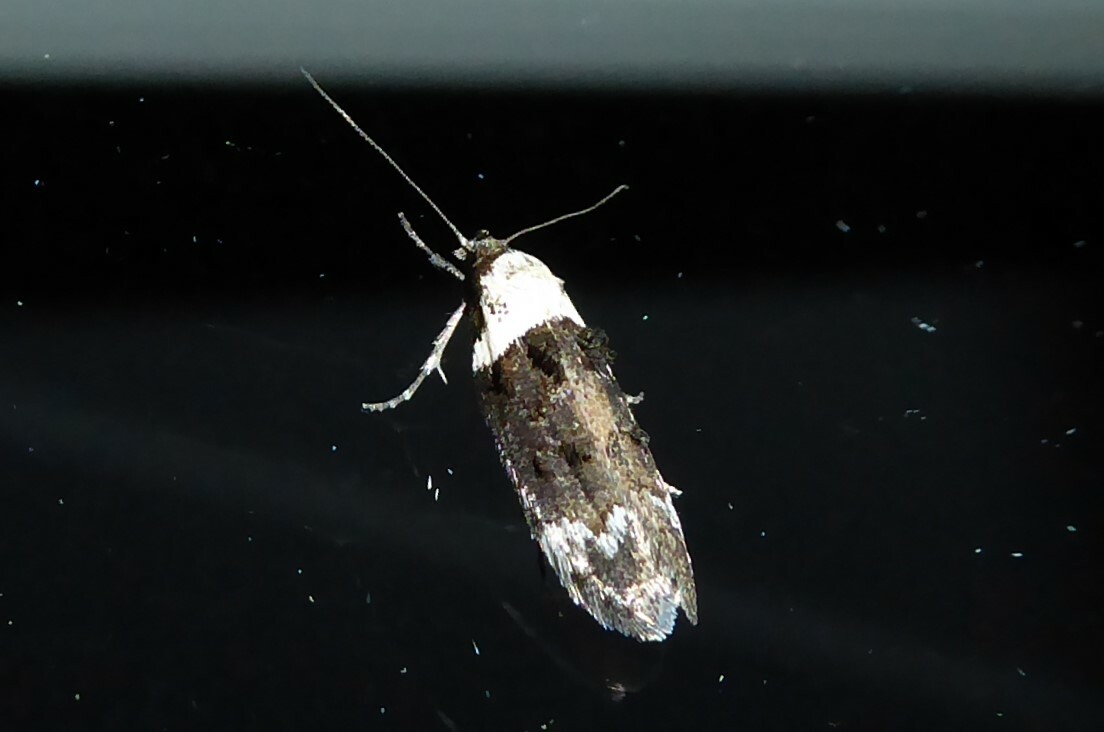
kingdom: Animalia
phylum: Arthropoda
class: Insecta
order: Lepidoptera
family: Oecophoridae
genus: Trachypepla
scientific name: Trachypepla conspicuella
